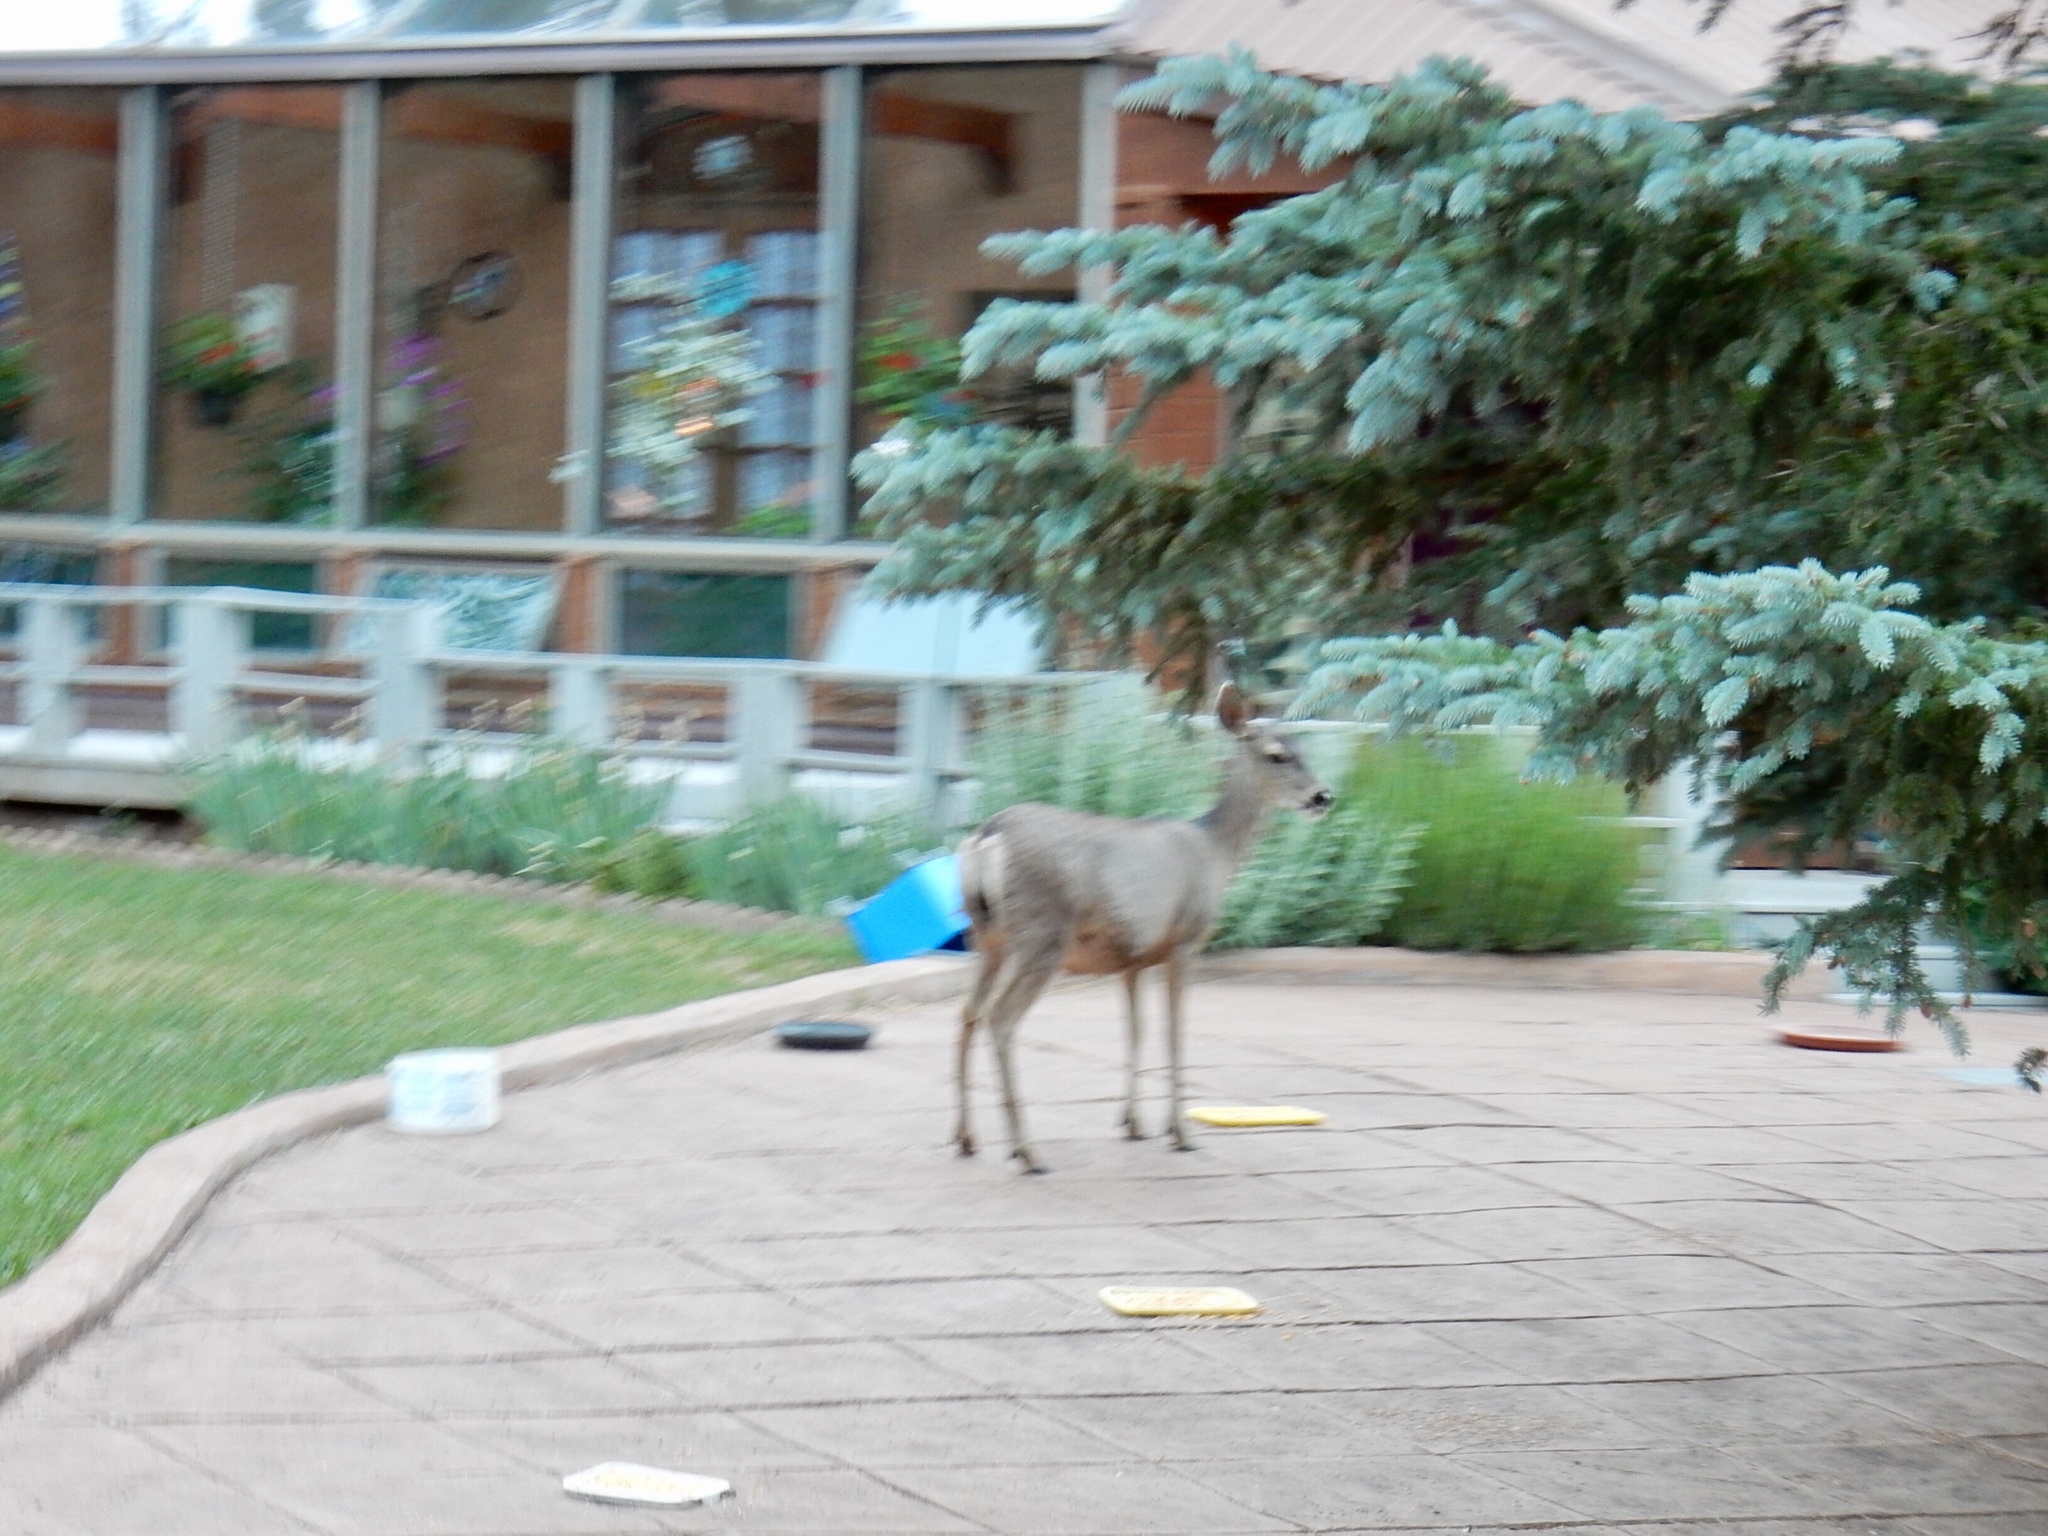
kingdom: Animalia
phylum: Chordata
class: Mammalia
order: Artiodactyla
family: Cervidae
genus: Odocoileus
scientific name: Odocoileus hemionus
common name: Mule deer
